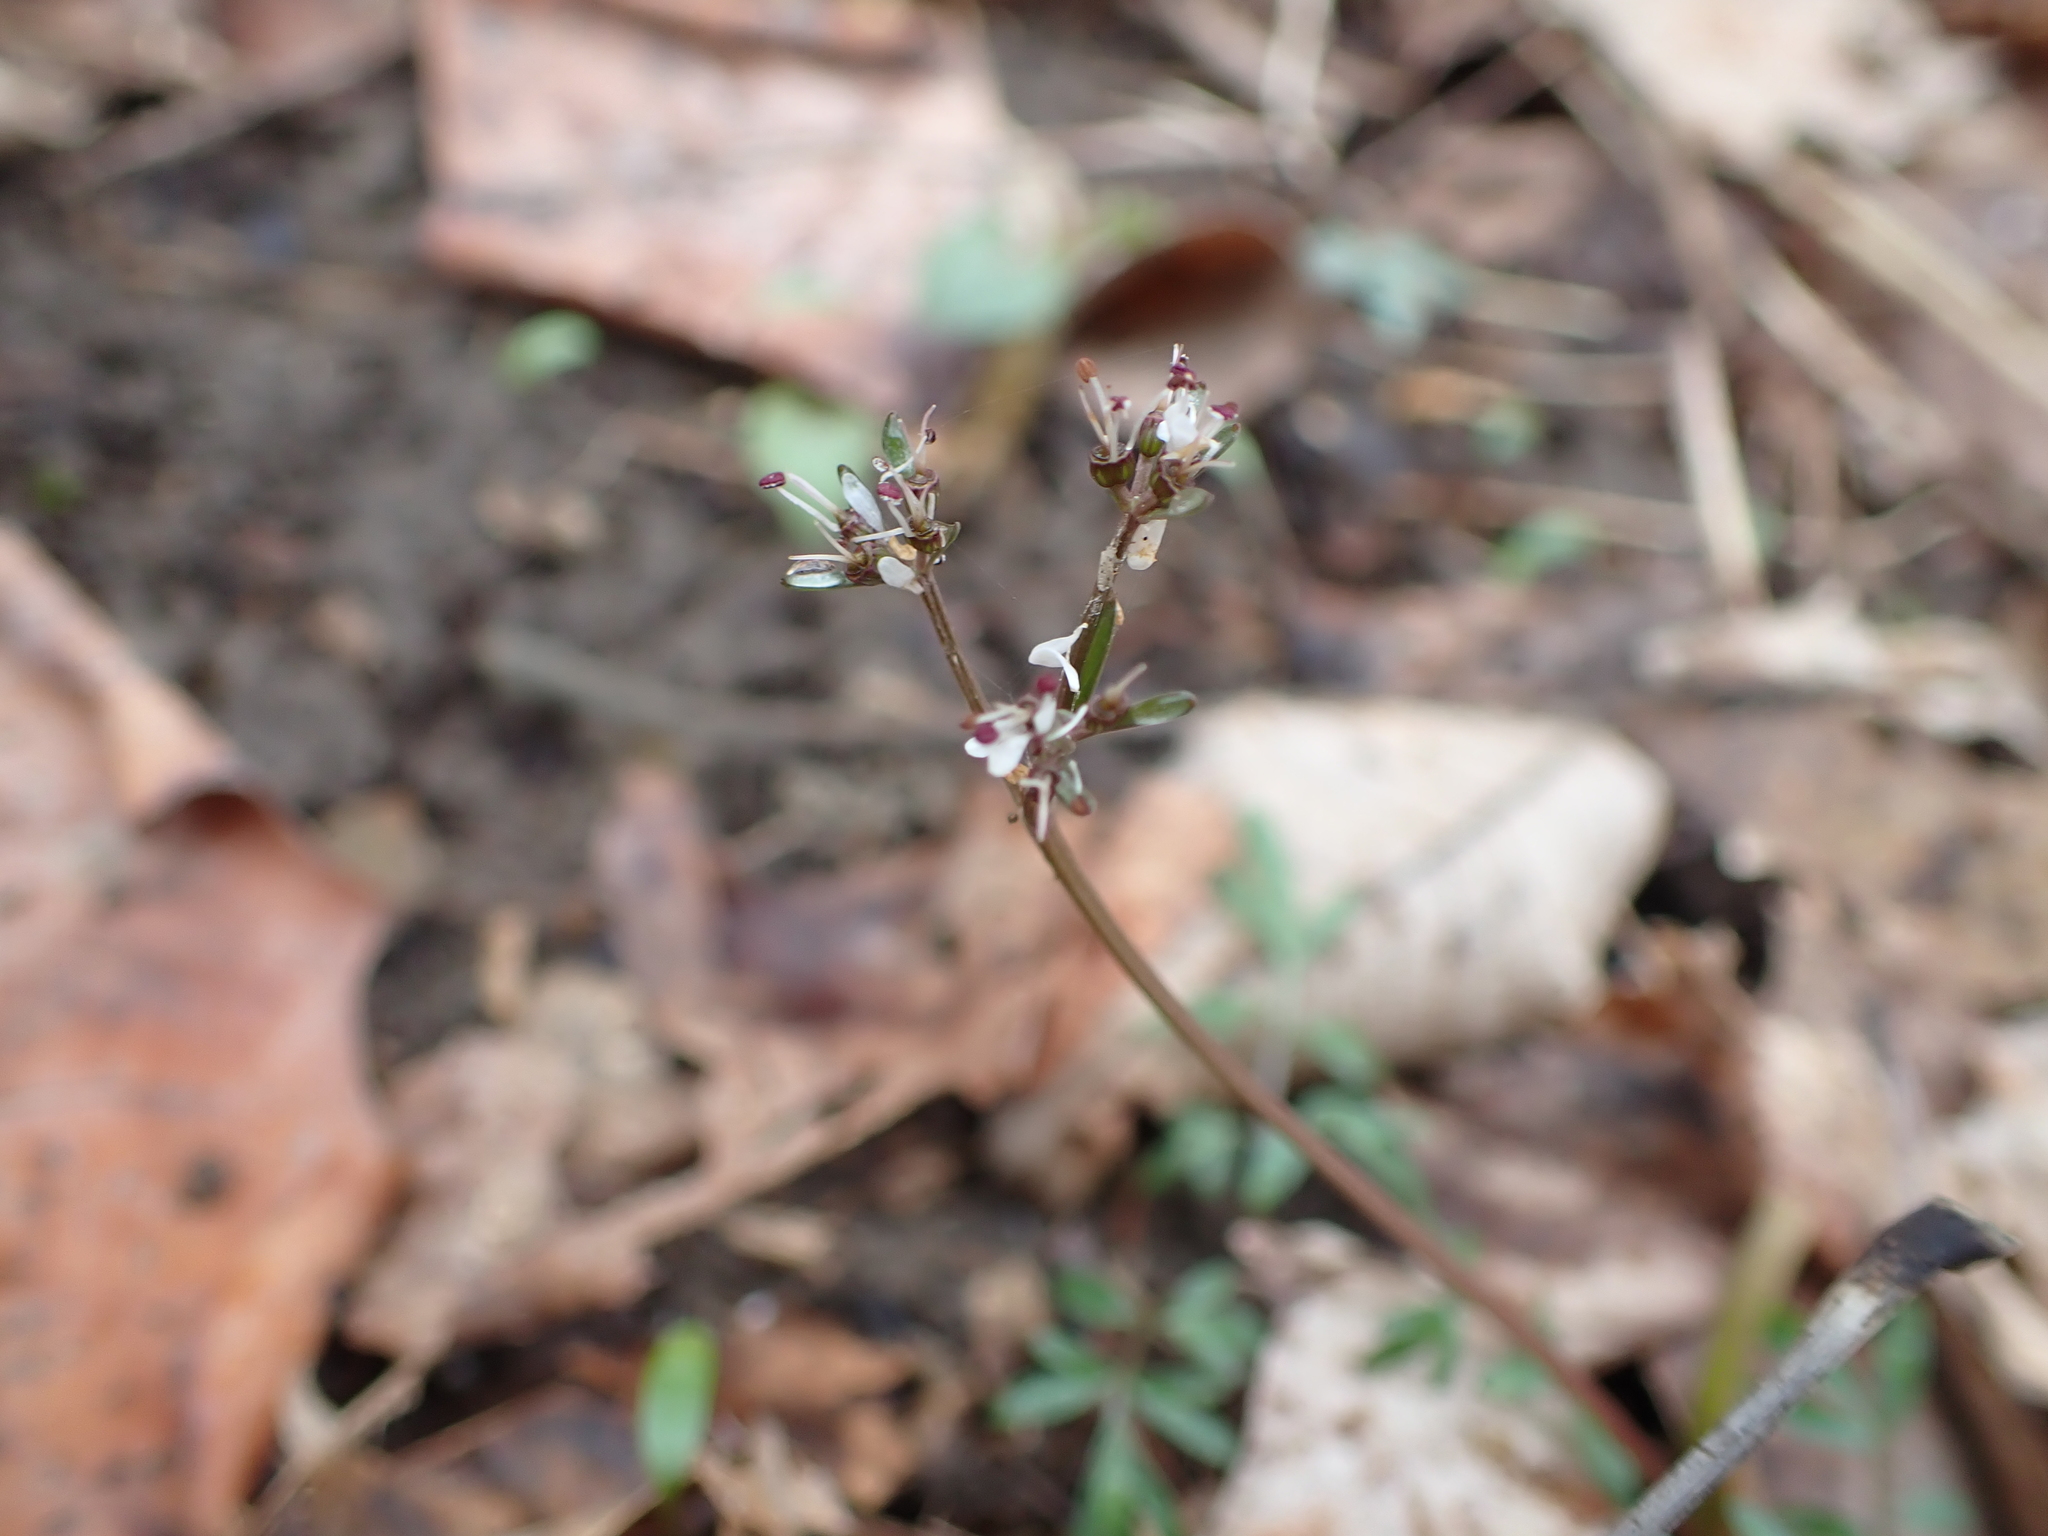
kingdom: Plantae
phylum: Tracheophyta
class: Magnoliopsida
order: Apiales
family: Apiaceae
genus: Erigenia
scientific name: Erigenia bulbosa
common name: Pepper-and-salt
